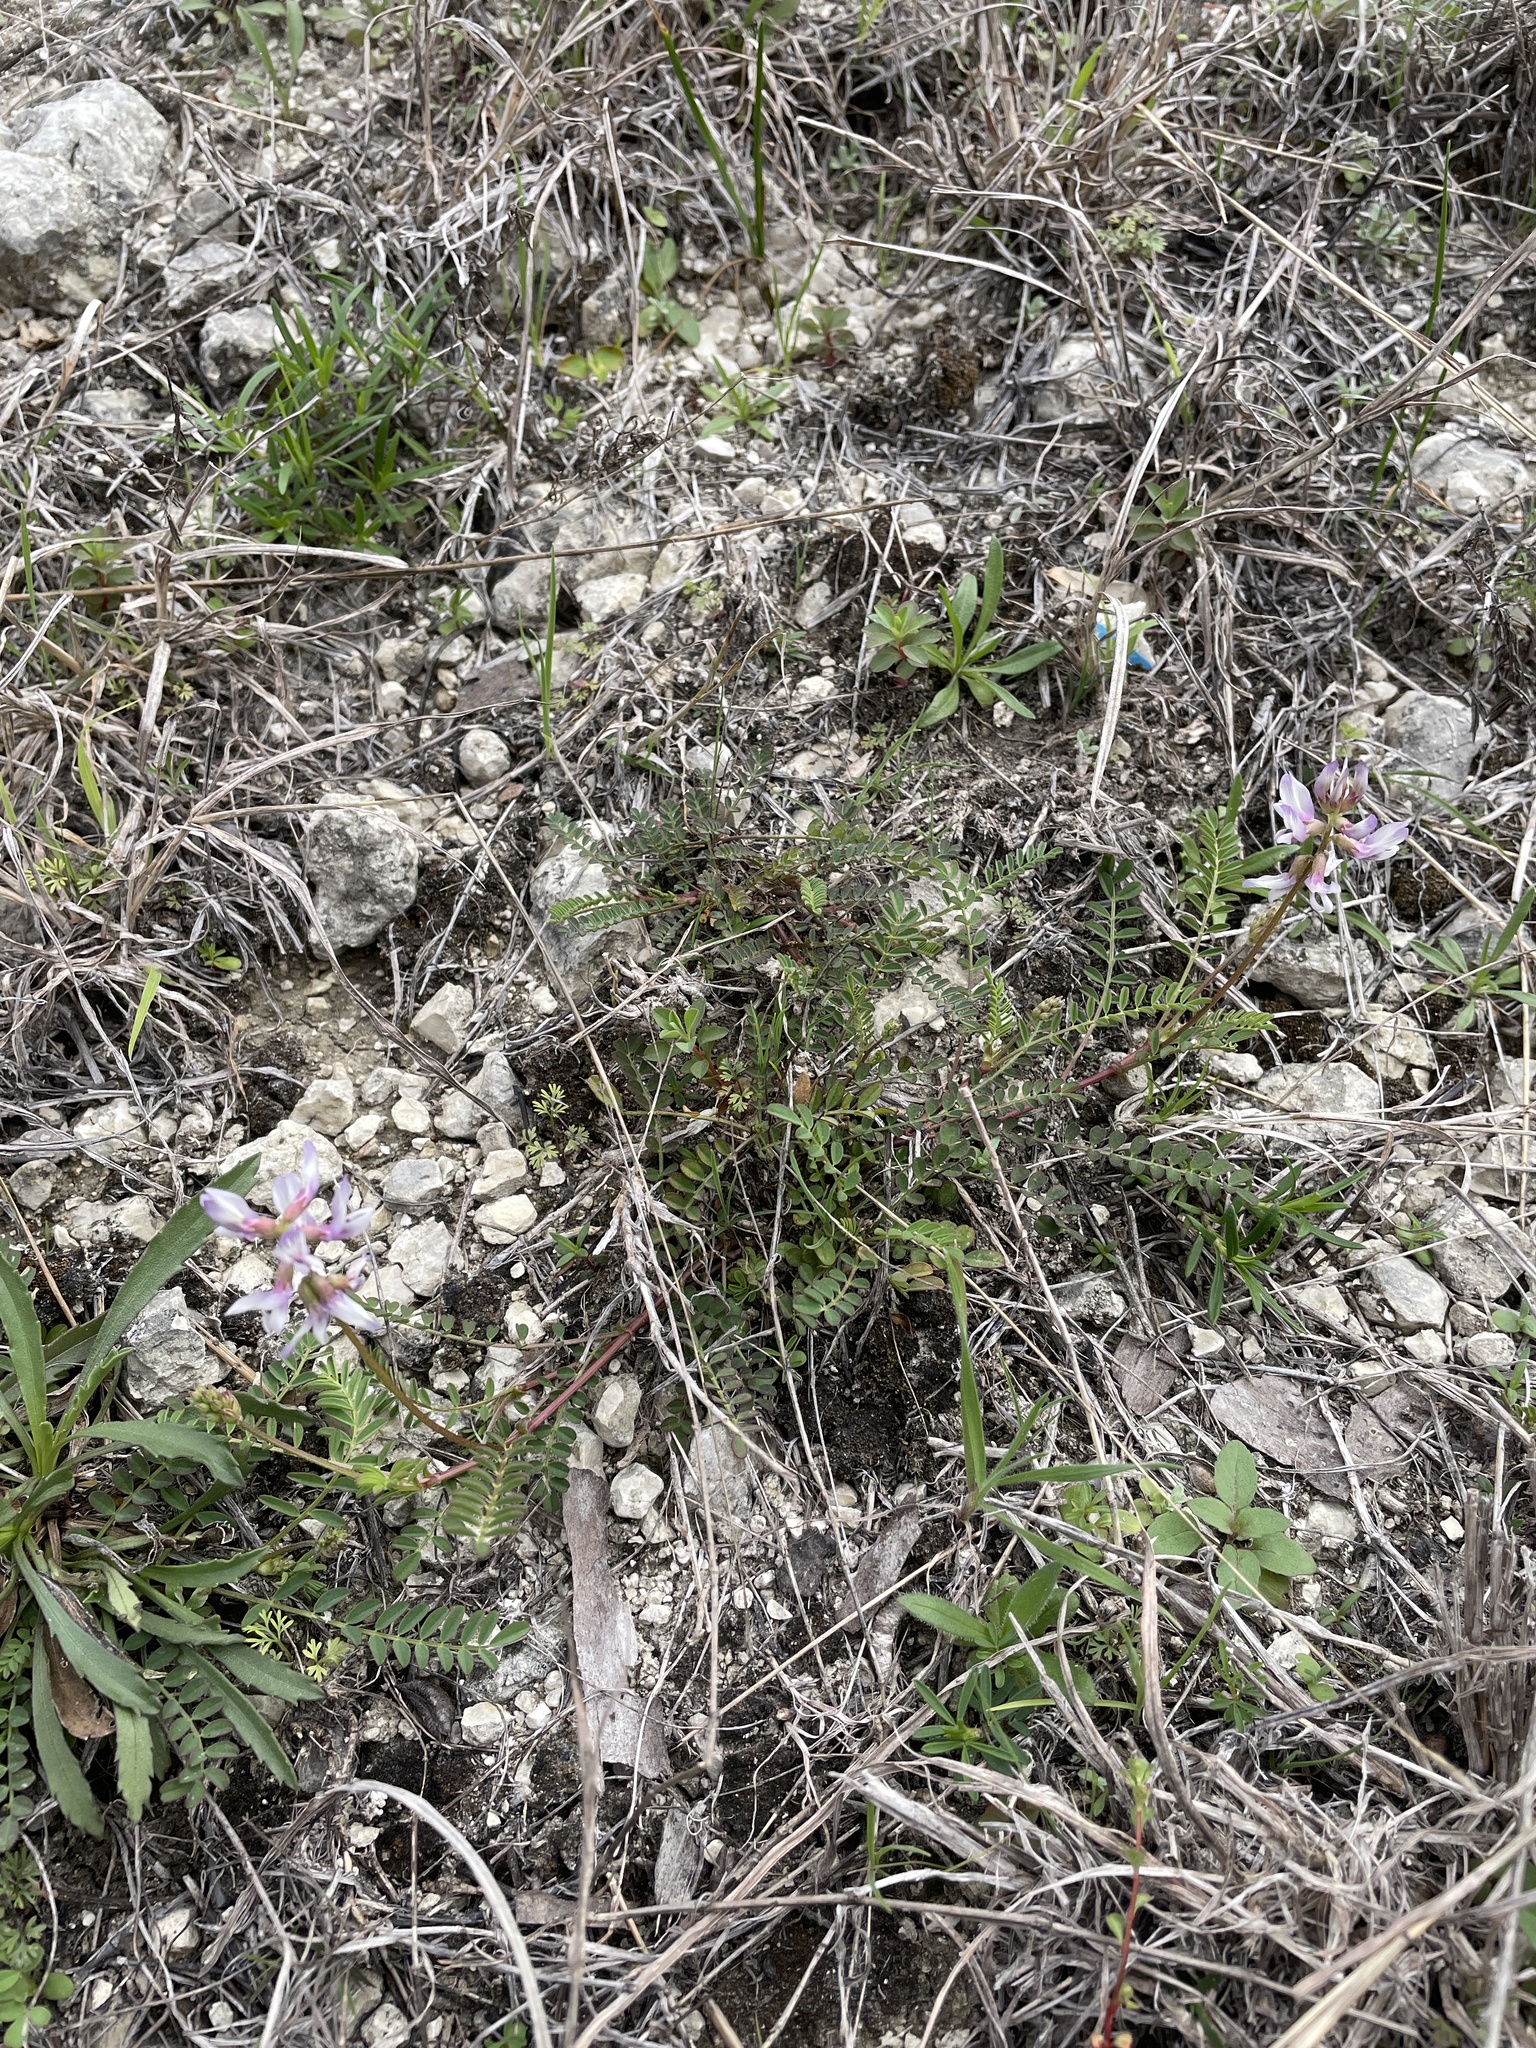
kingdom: Plantae
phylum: Tracheophyta
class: Magnoliopsida
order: Fabales
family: Fabaceae
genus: Astragalus
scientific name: Astragalus distortus
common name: Ozark milk-vetch
